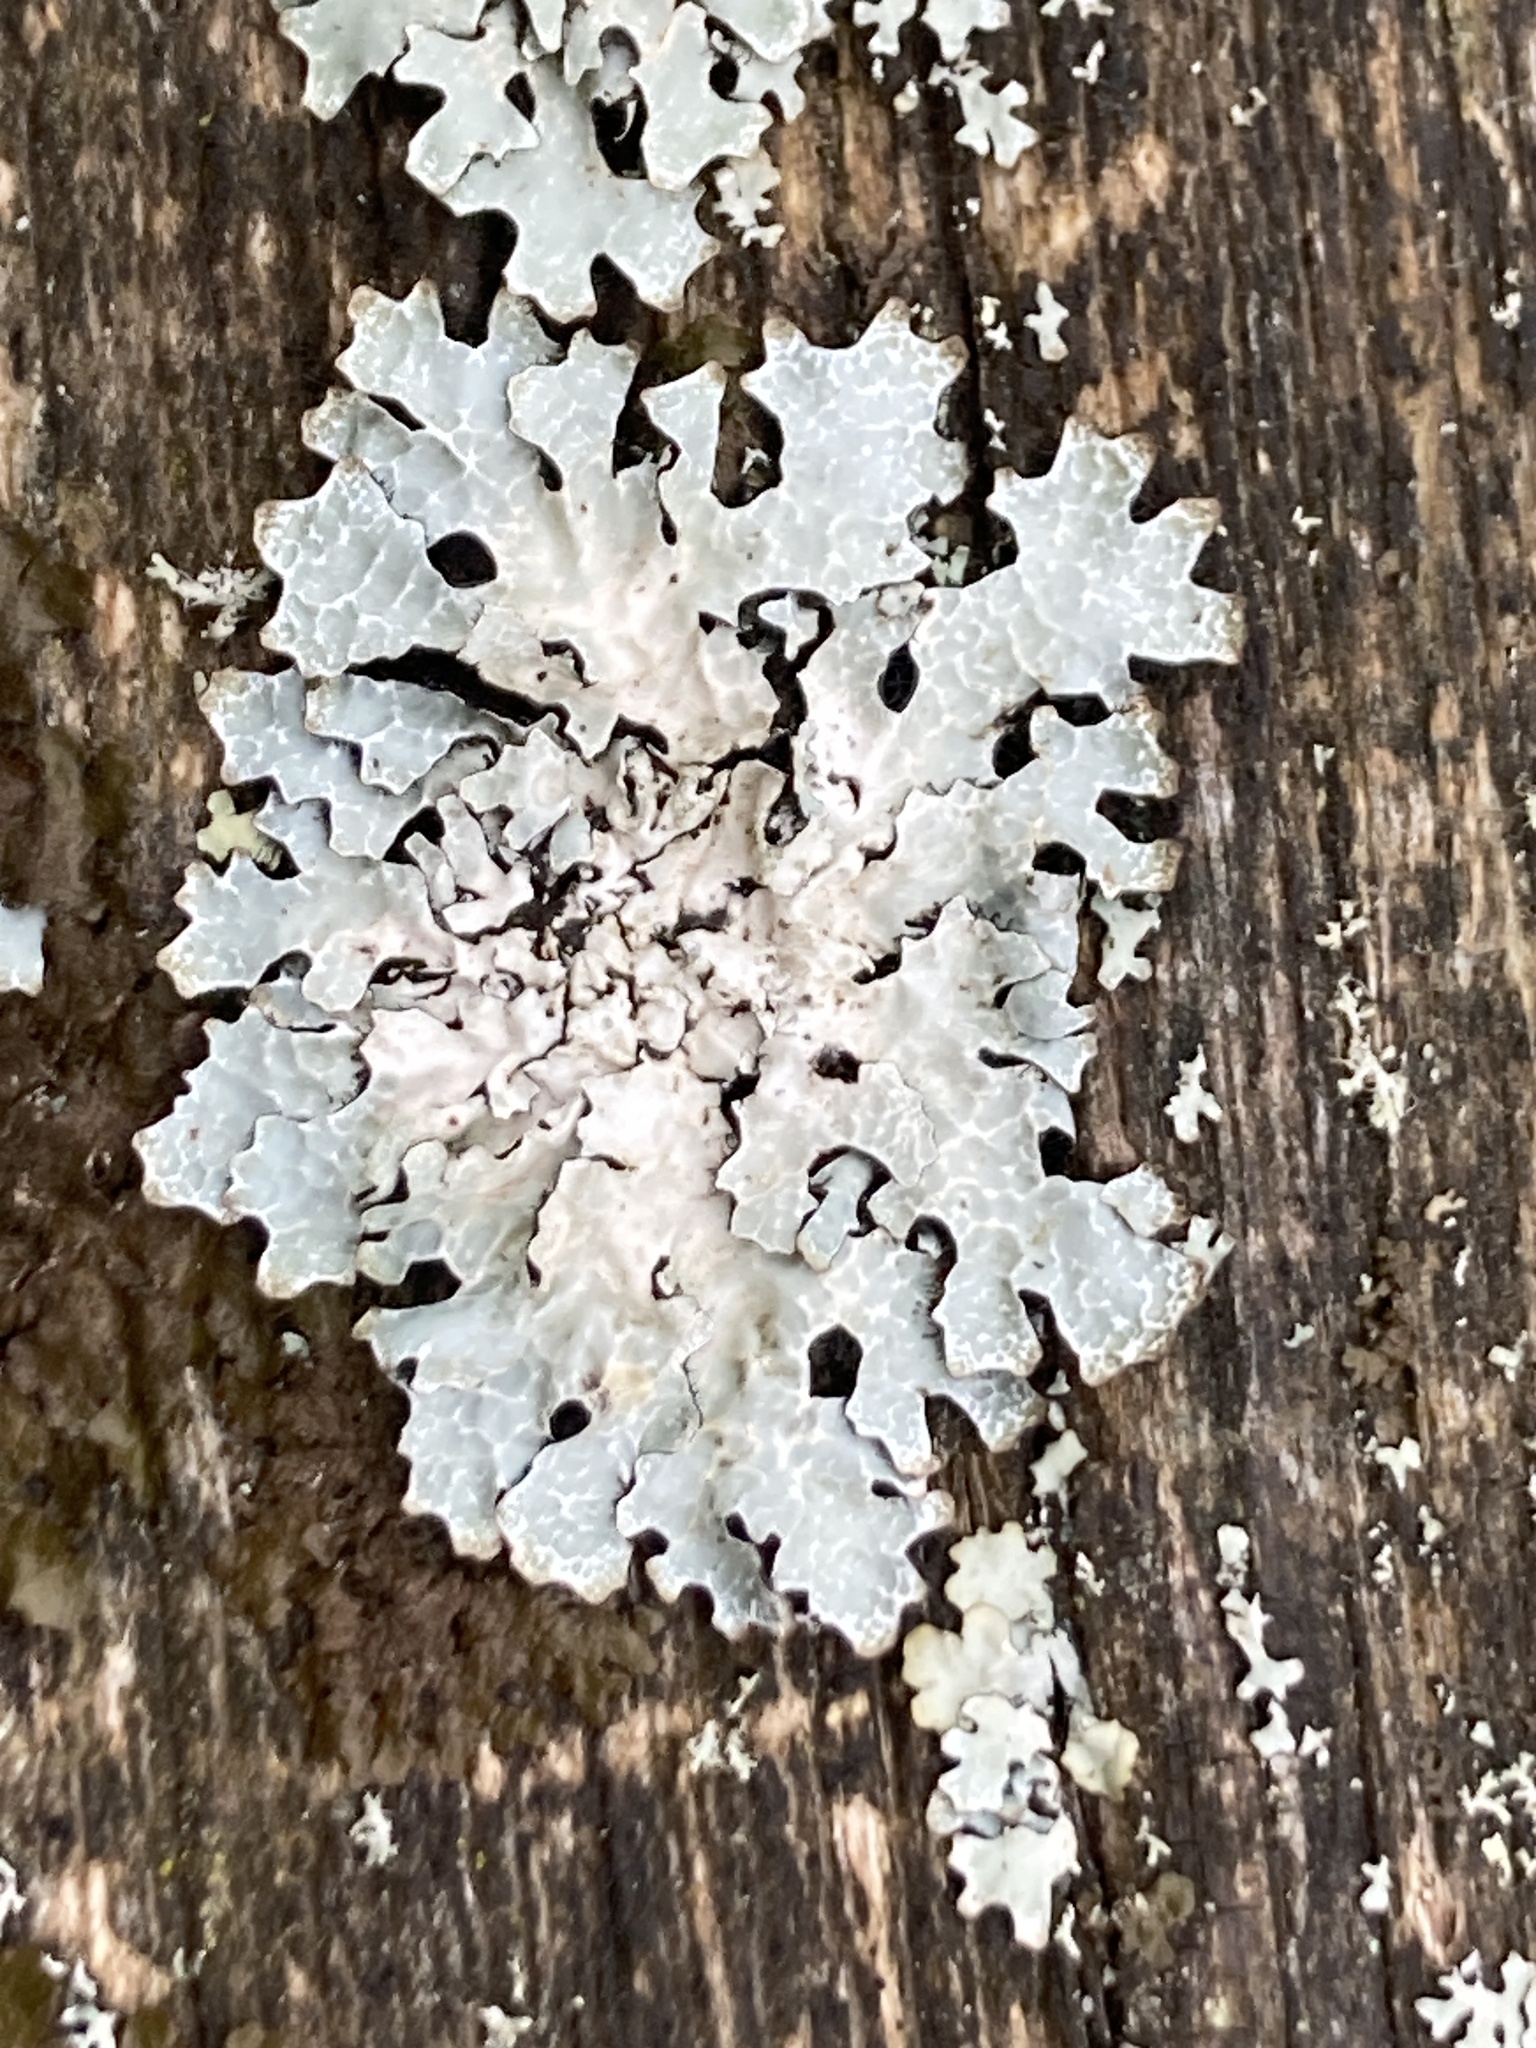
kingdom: Fungi
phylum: Ascomycota
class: Lecanoromycetes
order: Lecanorales
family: Parmeliaceae
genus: Parmelia
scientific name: Parmelia sulcata
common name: Netted shield lichen
